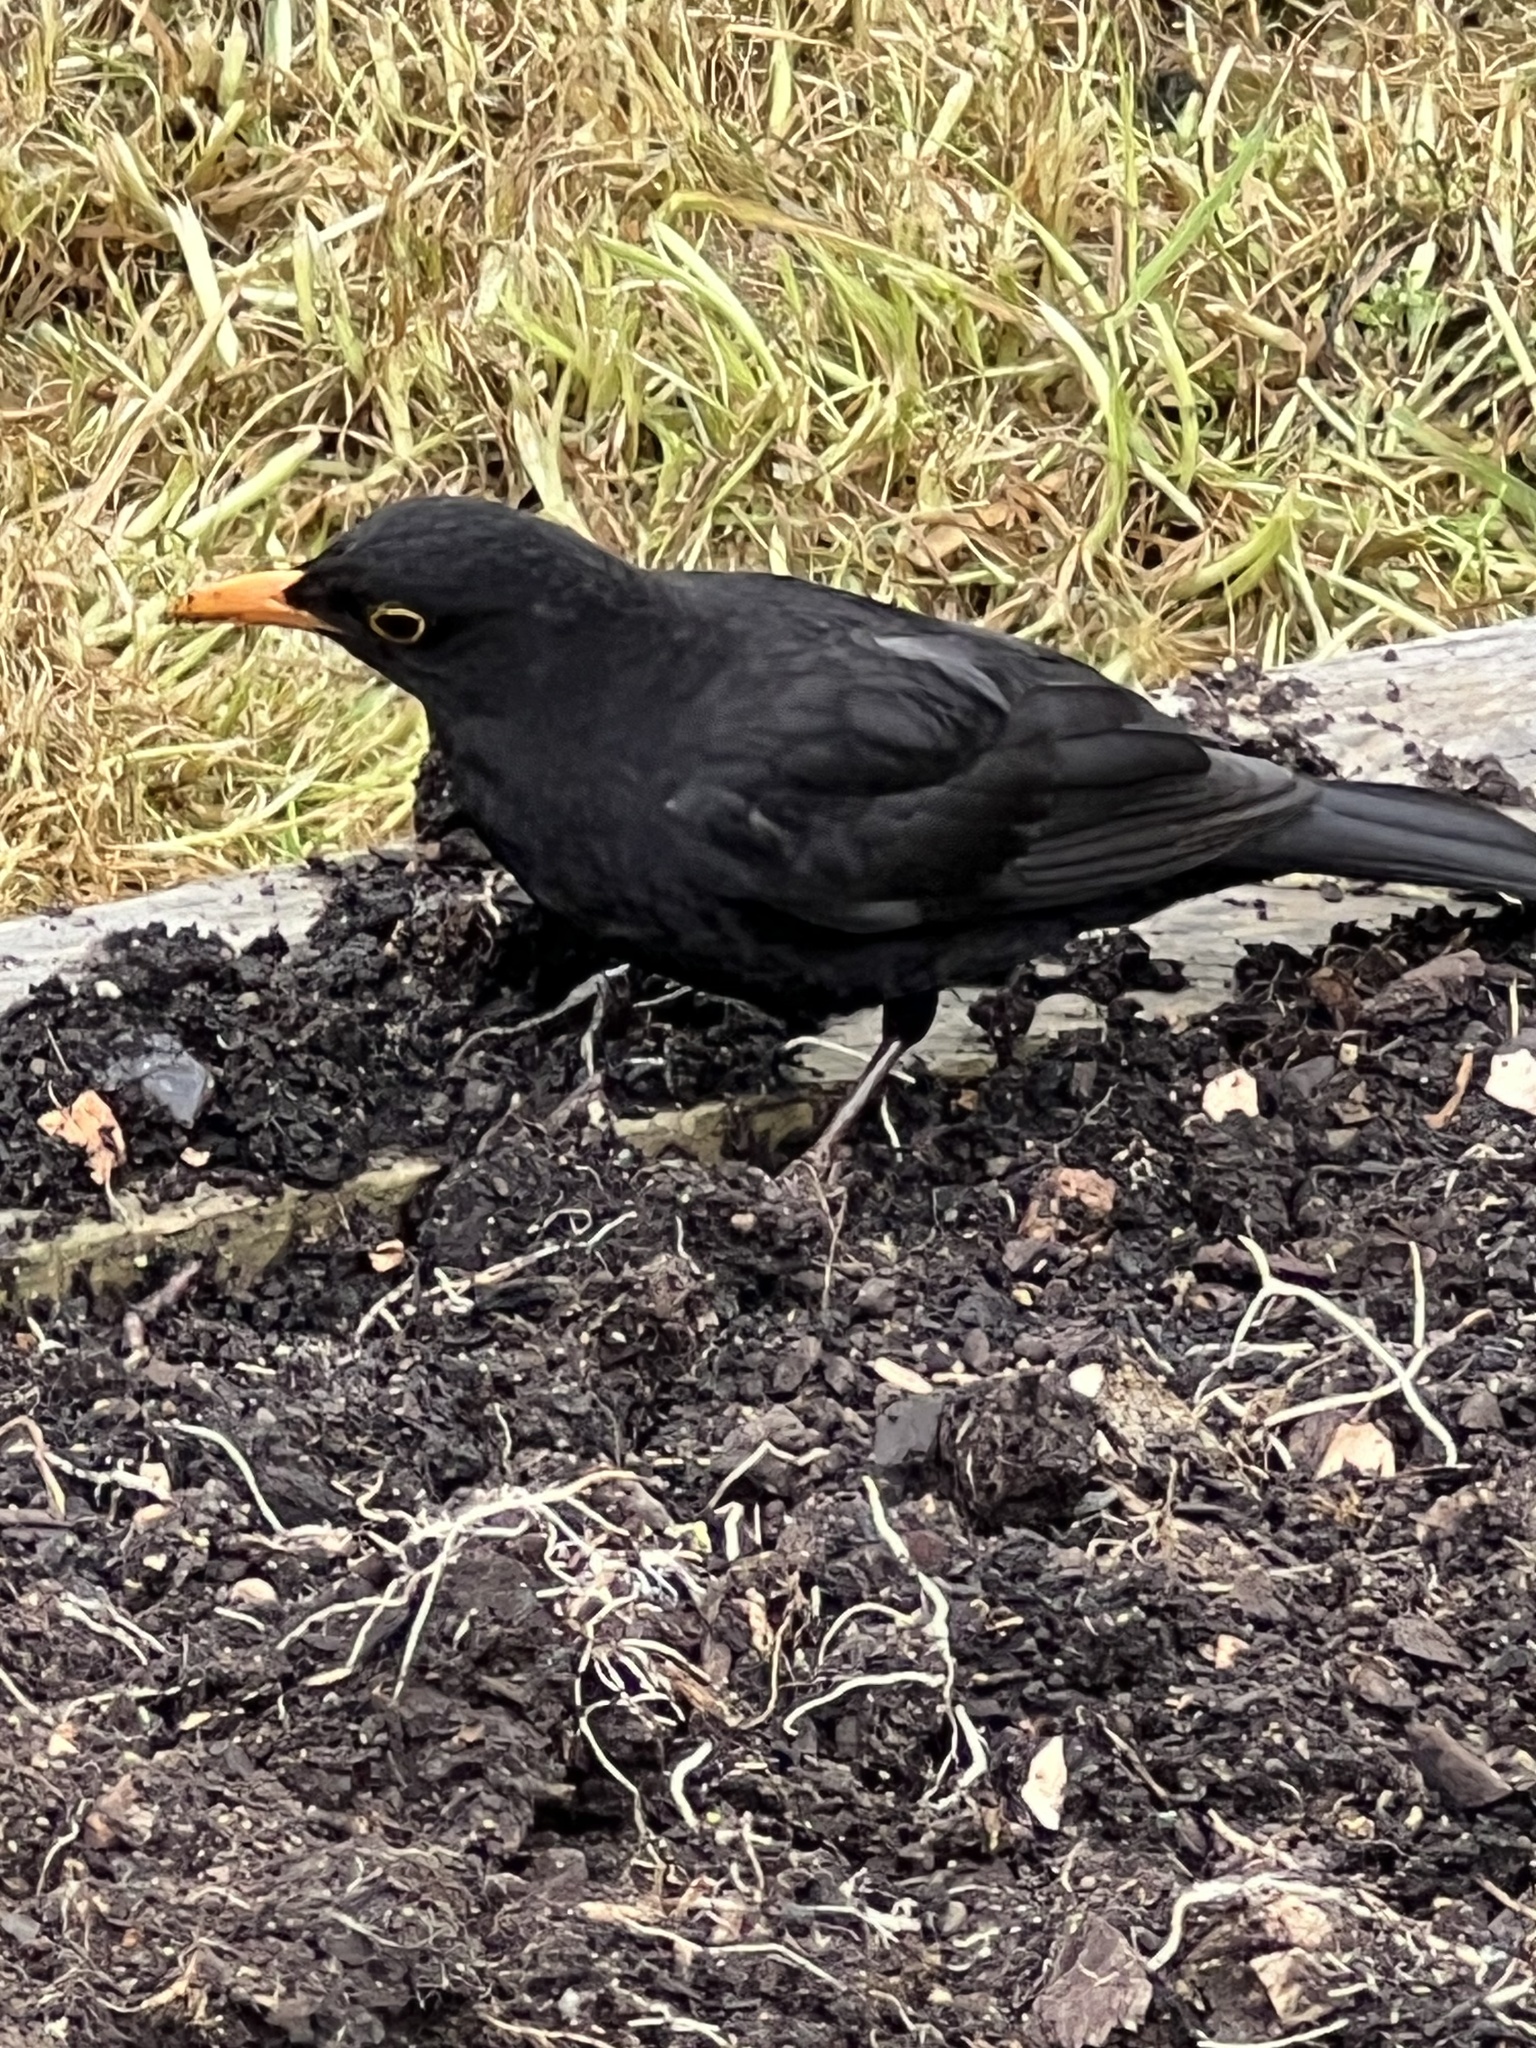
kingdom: Animalia
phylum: Chordata
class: Aves
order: Passeriformes
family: Turdidae
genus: Turdus
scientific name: Turdus merula
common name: Common blackbird
